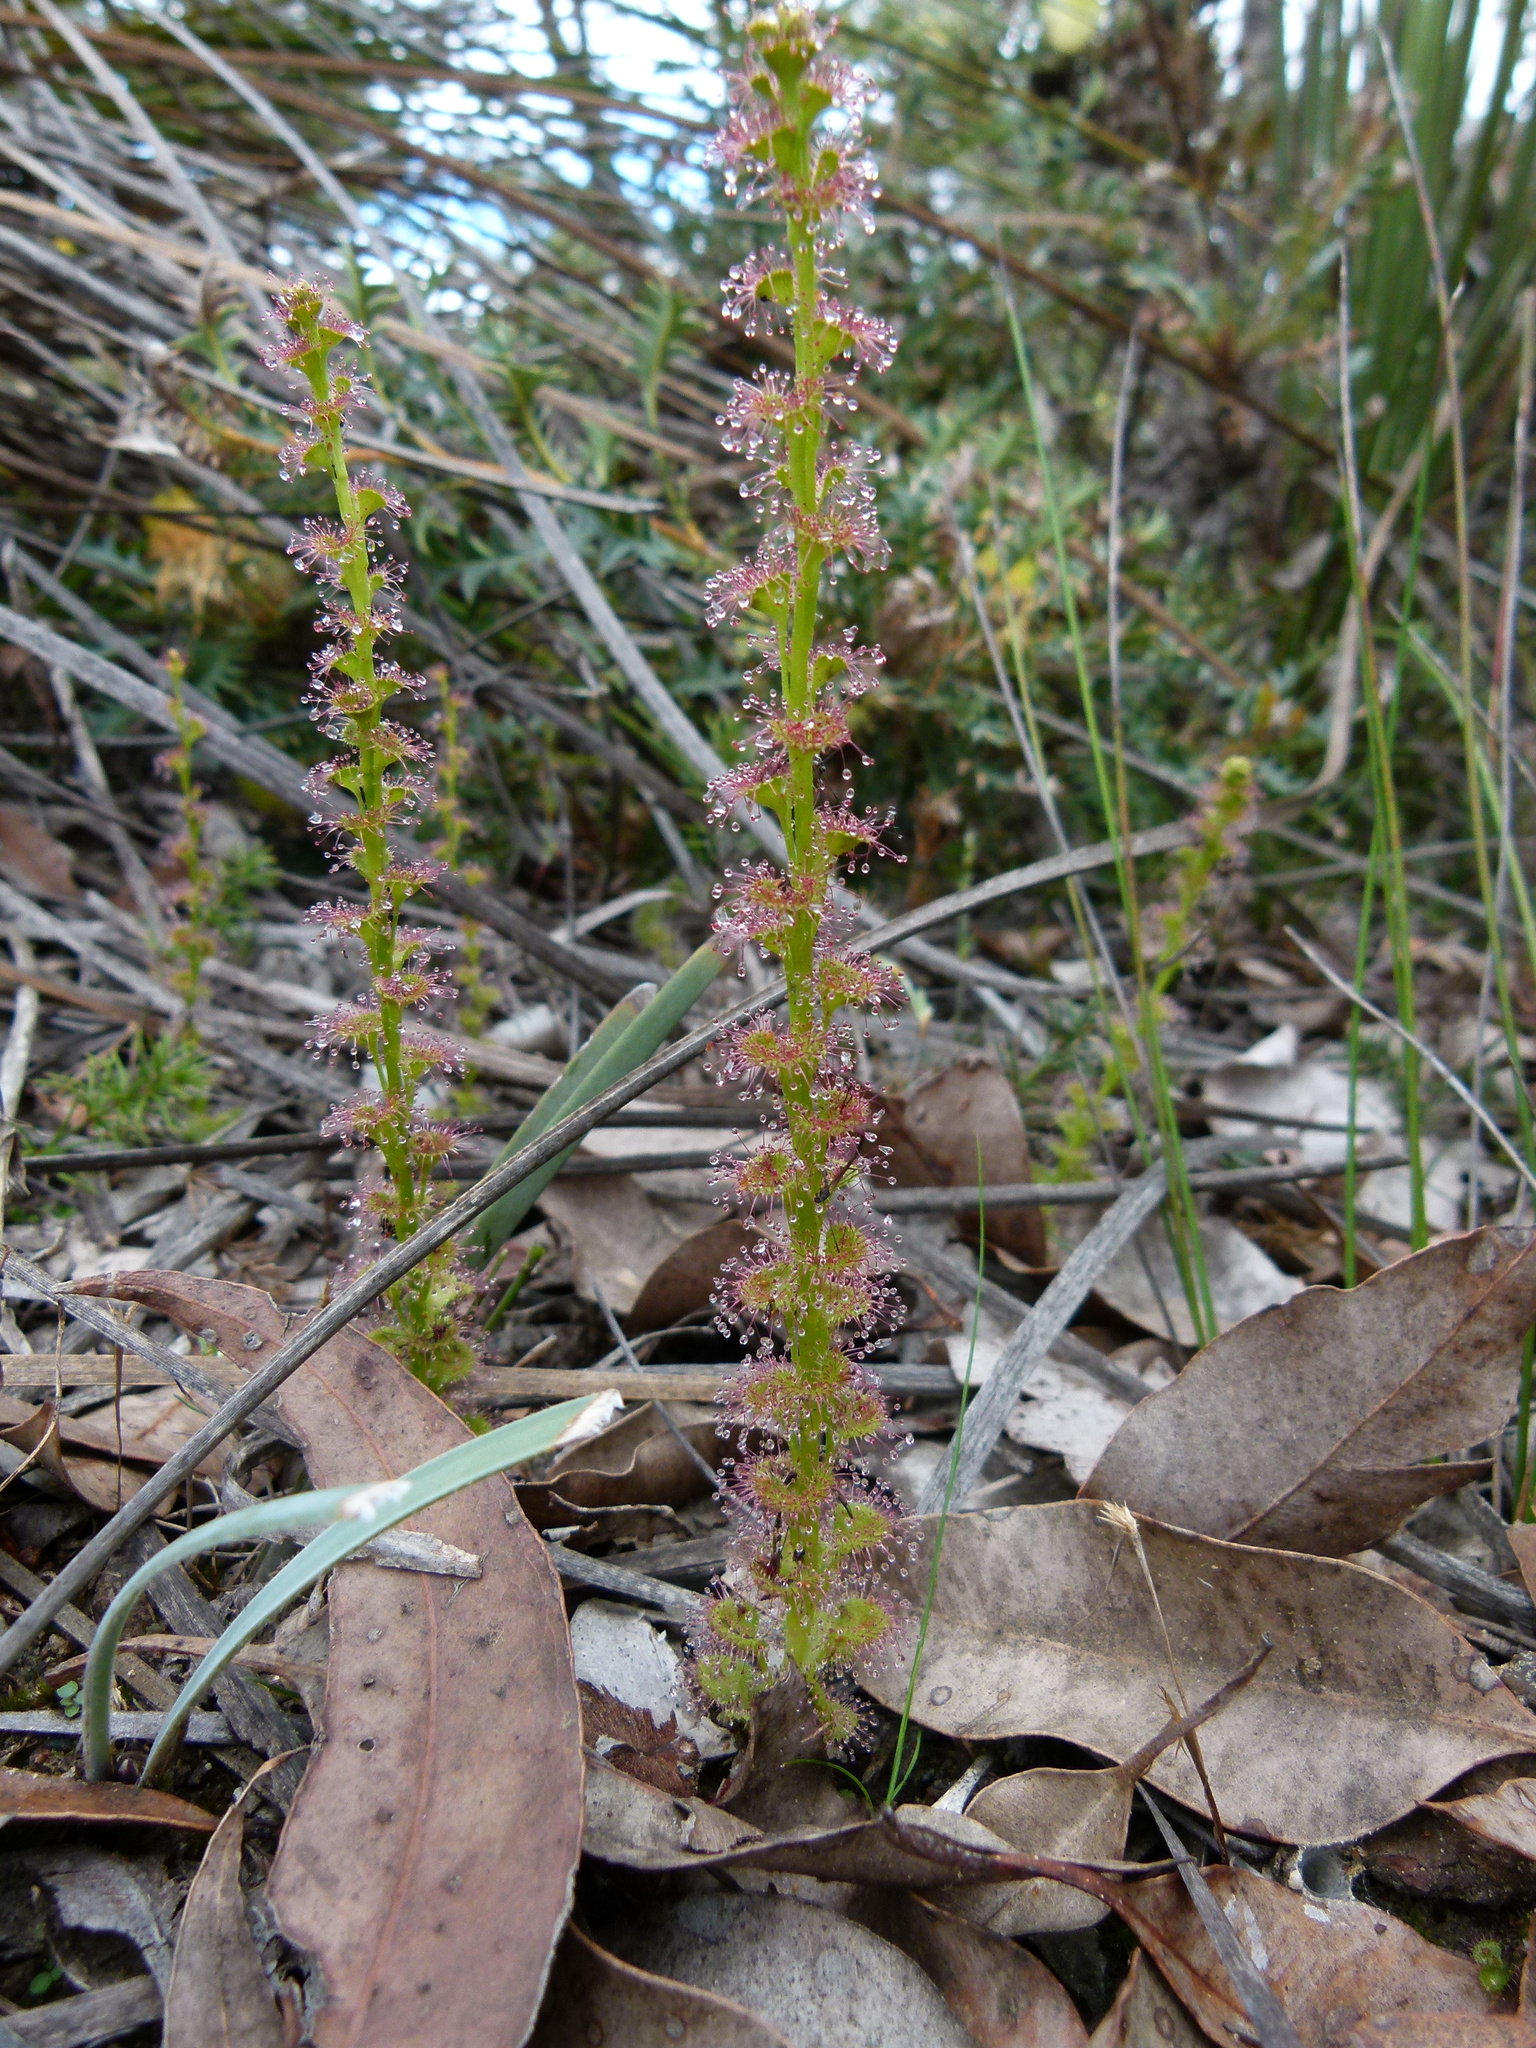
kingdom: Plantae
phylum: Tracheophyta
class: Magnoliopsida
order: Caryophyllales
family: Droseraceae
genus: Drosera
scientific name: Drosera platypoda
